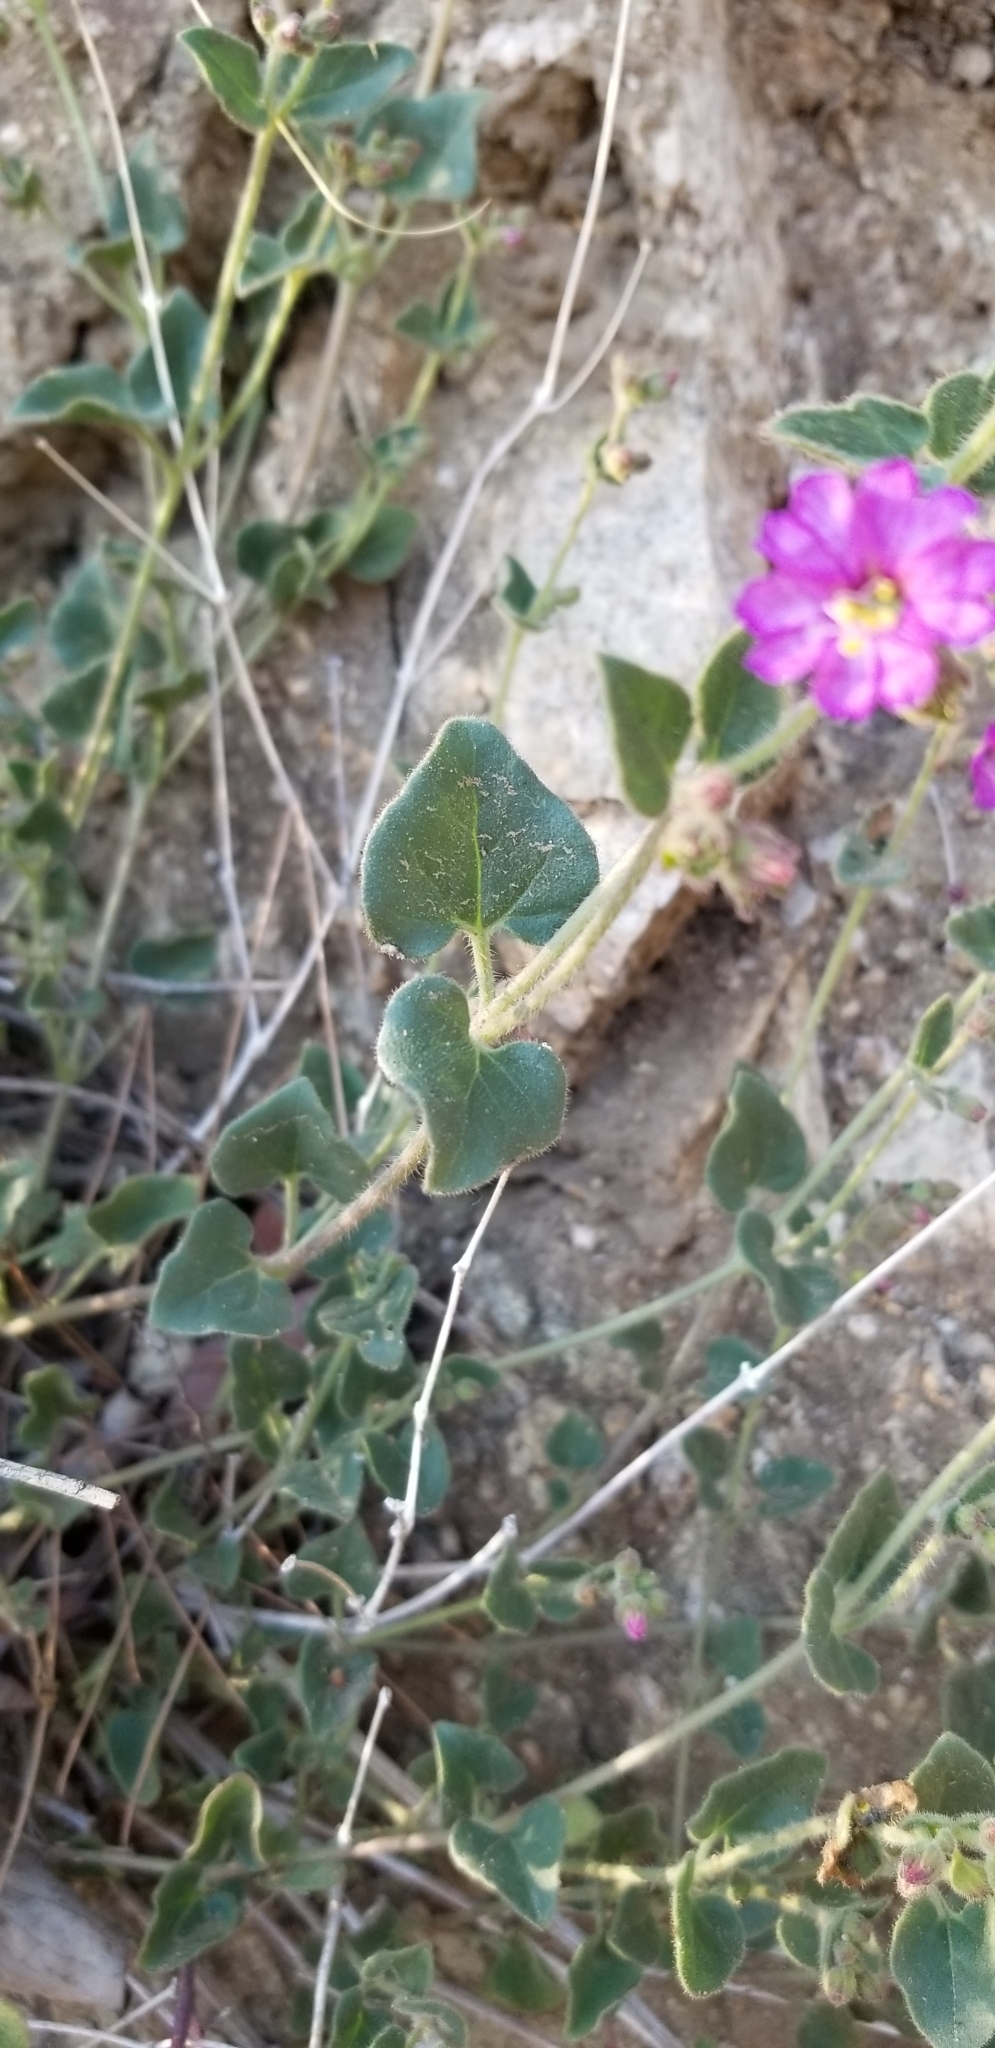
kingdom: Plantae
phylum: Tracheophyta
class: Magnoliopsida
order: Caryophyllales
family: Nyctaginaceae
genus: Mirabilis
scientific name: Mirabilis laevis
